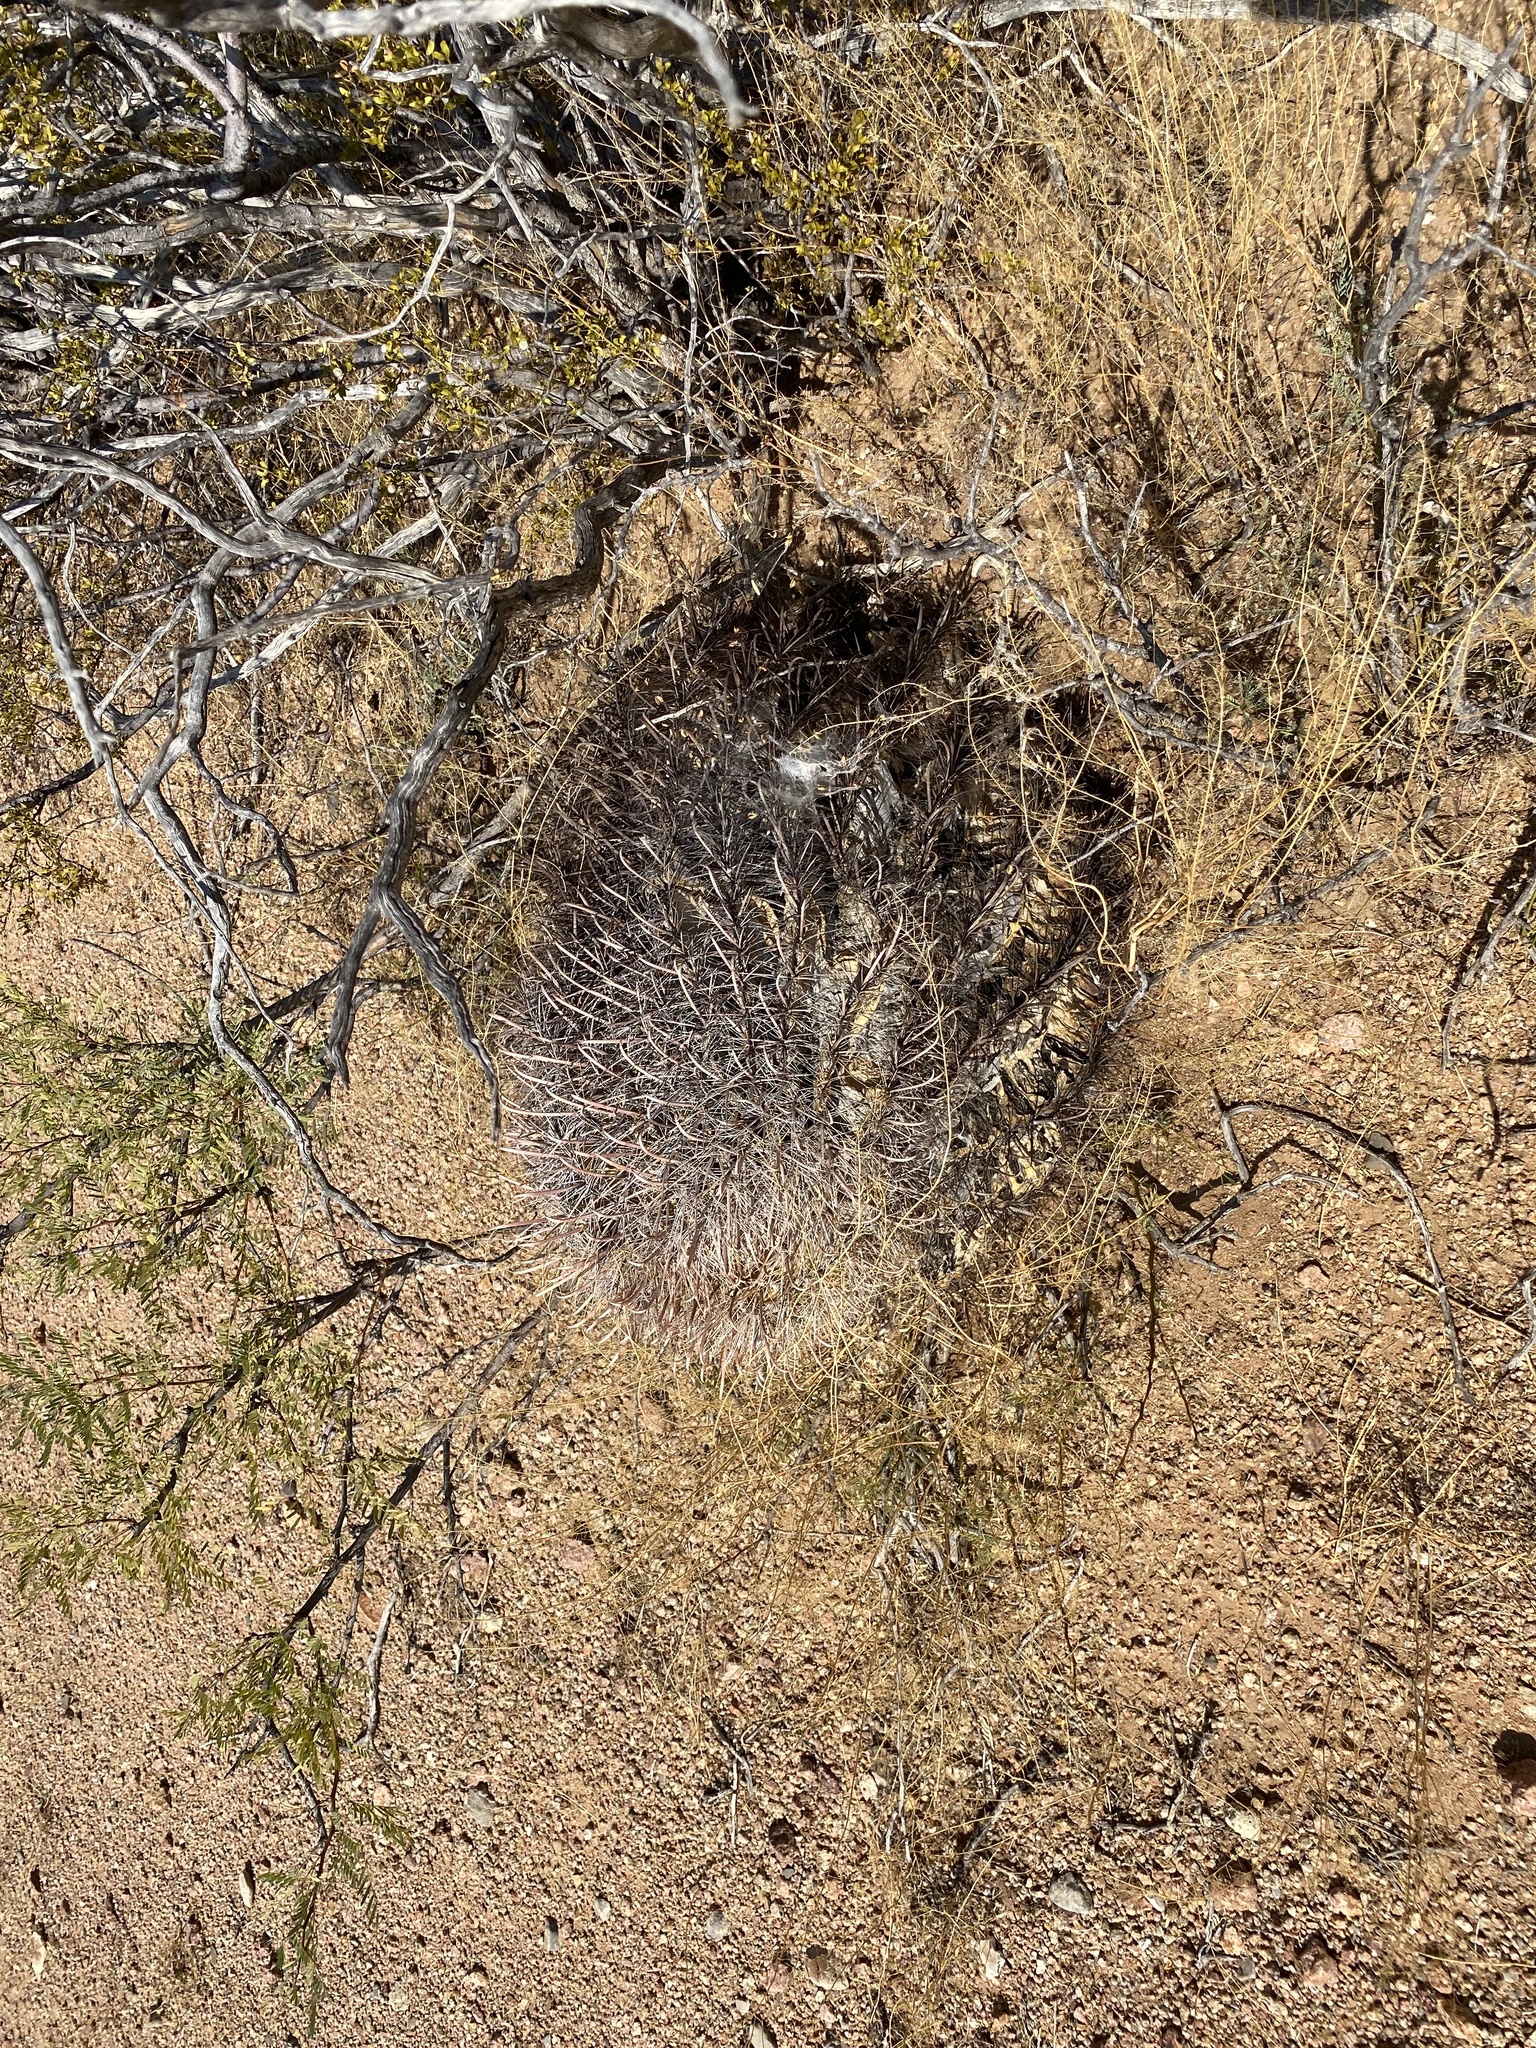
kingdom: Plantae
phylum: Tracheophyta
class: Magnoliopsida
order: Caryophyllales
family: Cactaceae
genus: Ferocactus
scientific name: Ferocactus wislizeni
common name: Candy barrel cactus
